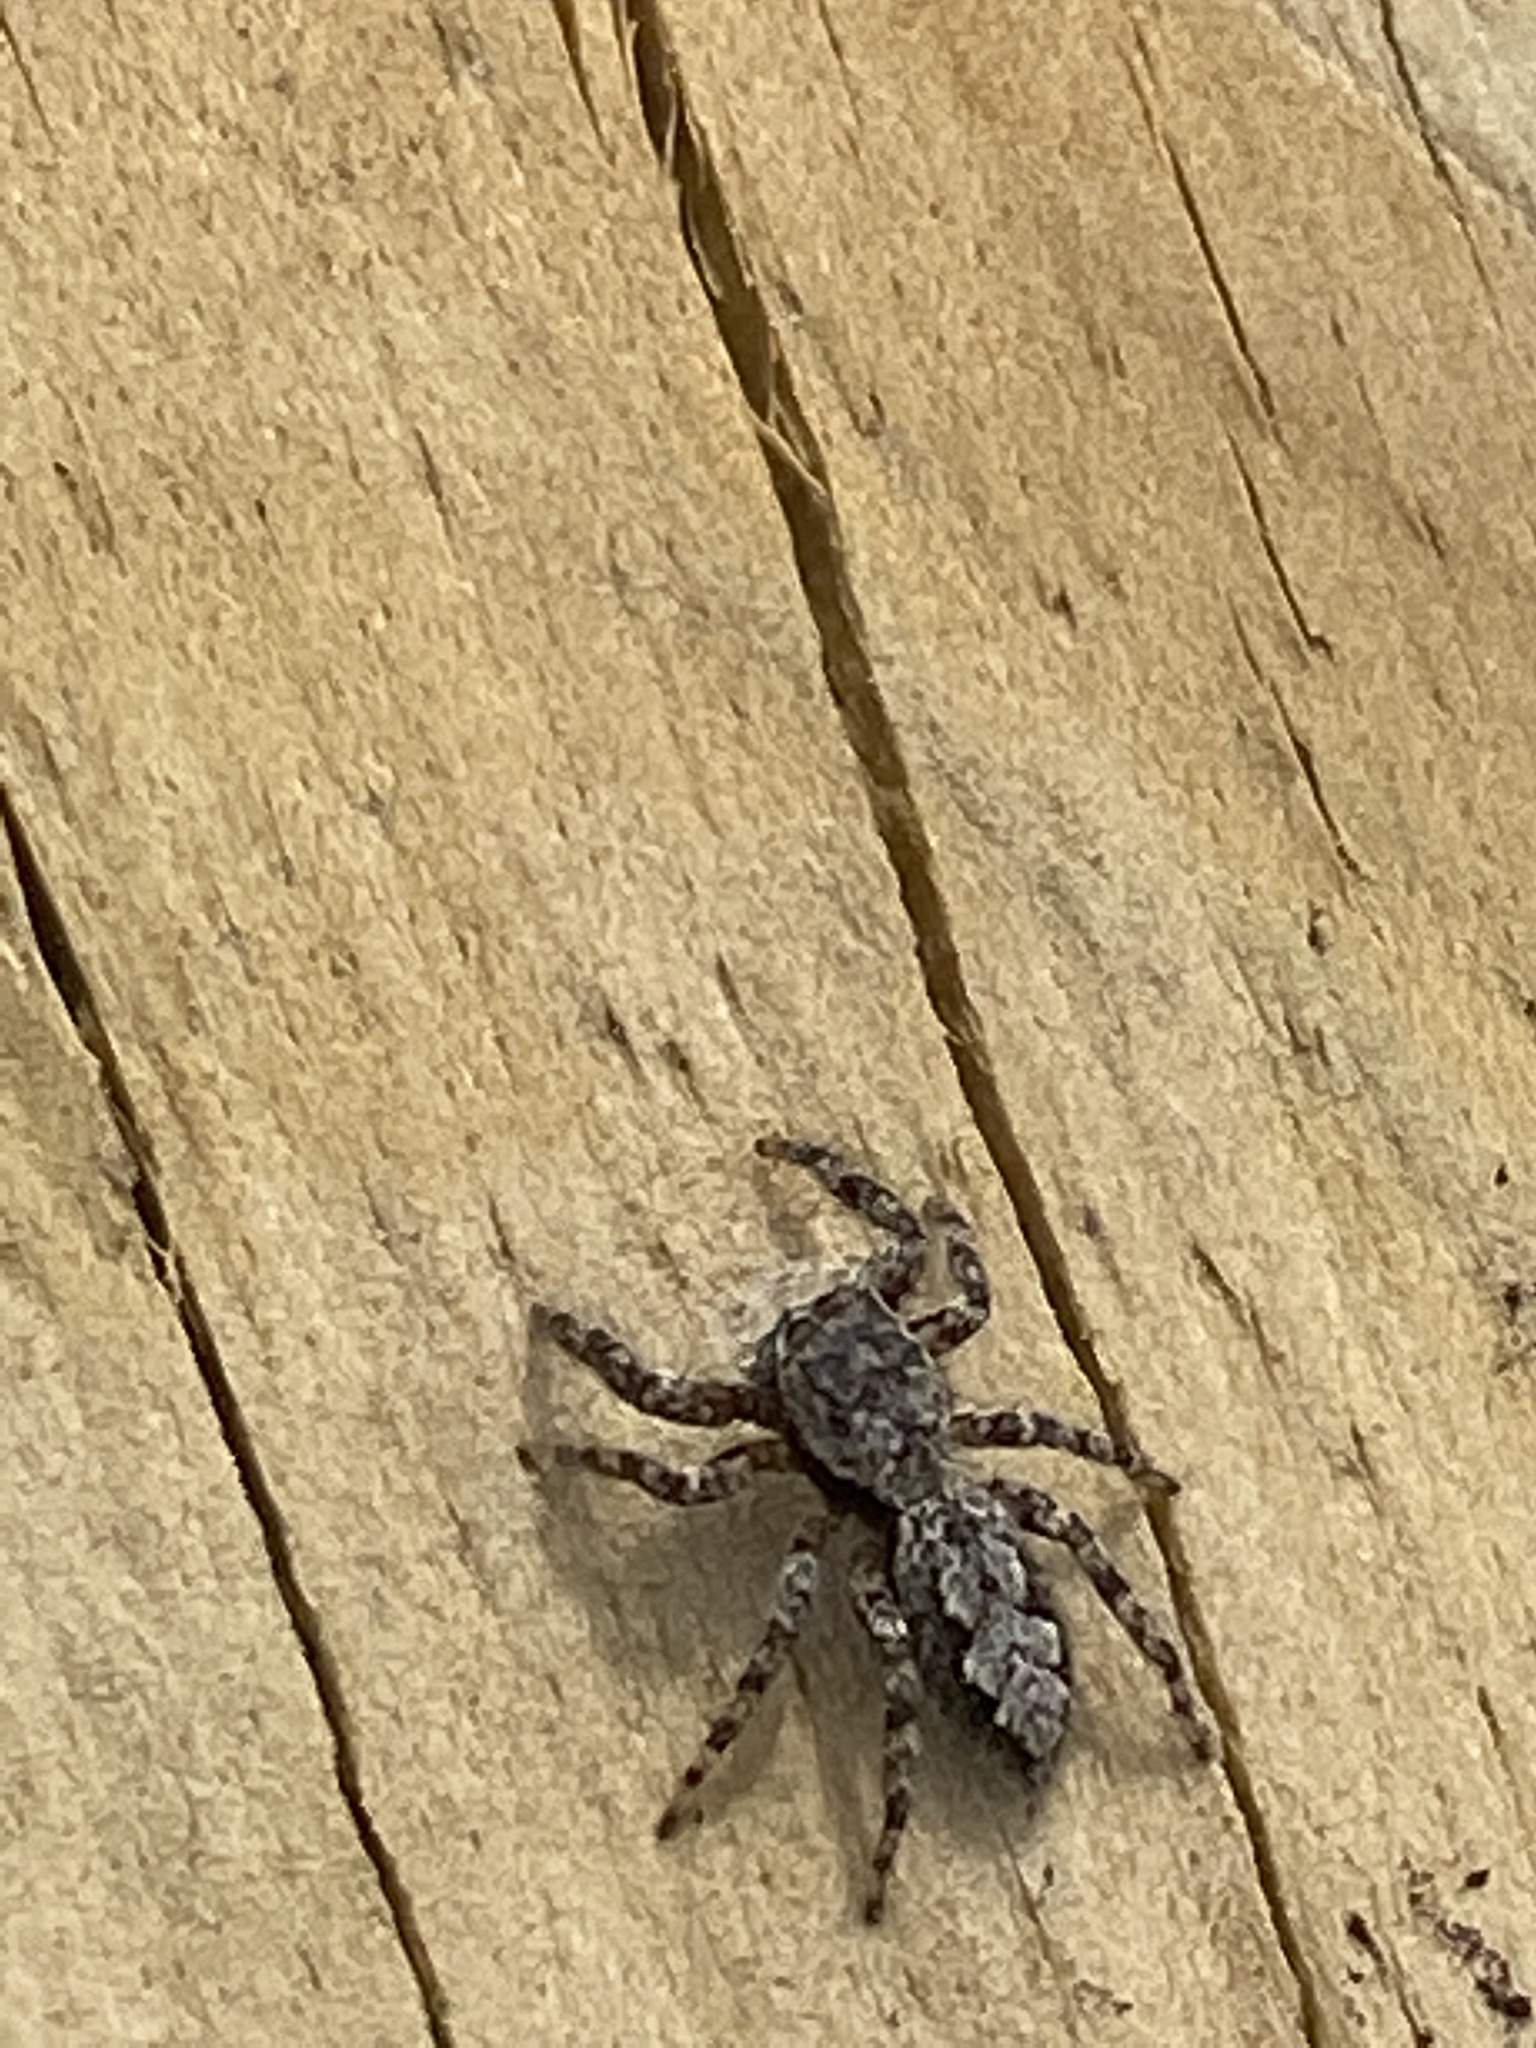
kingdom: Animalia
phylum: Arthropoda
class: Arachnida
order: Araneae
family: Salticidae
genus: Platycryptus
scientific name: Platycryptus undatus
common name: Tan jumping spider
